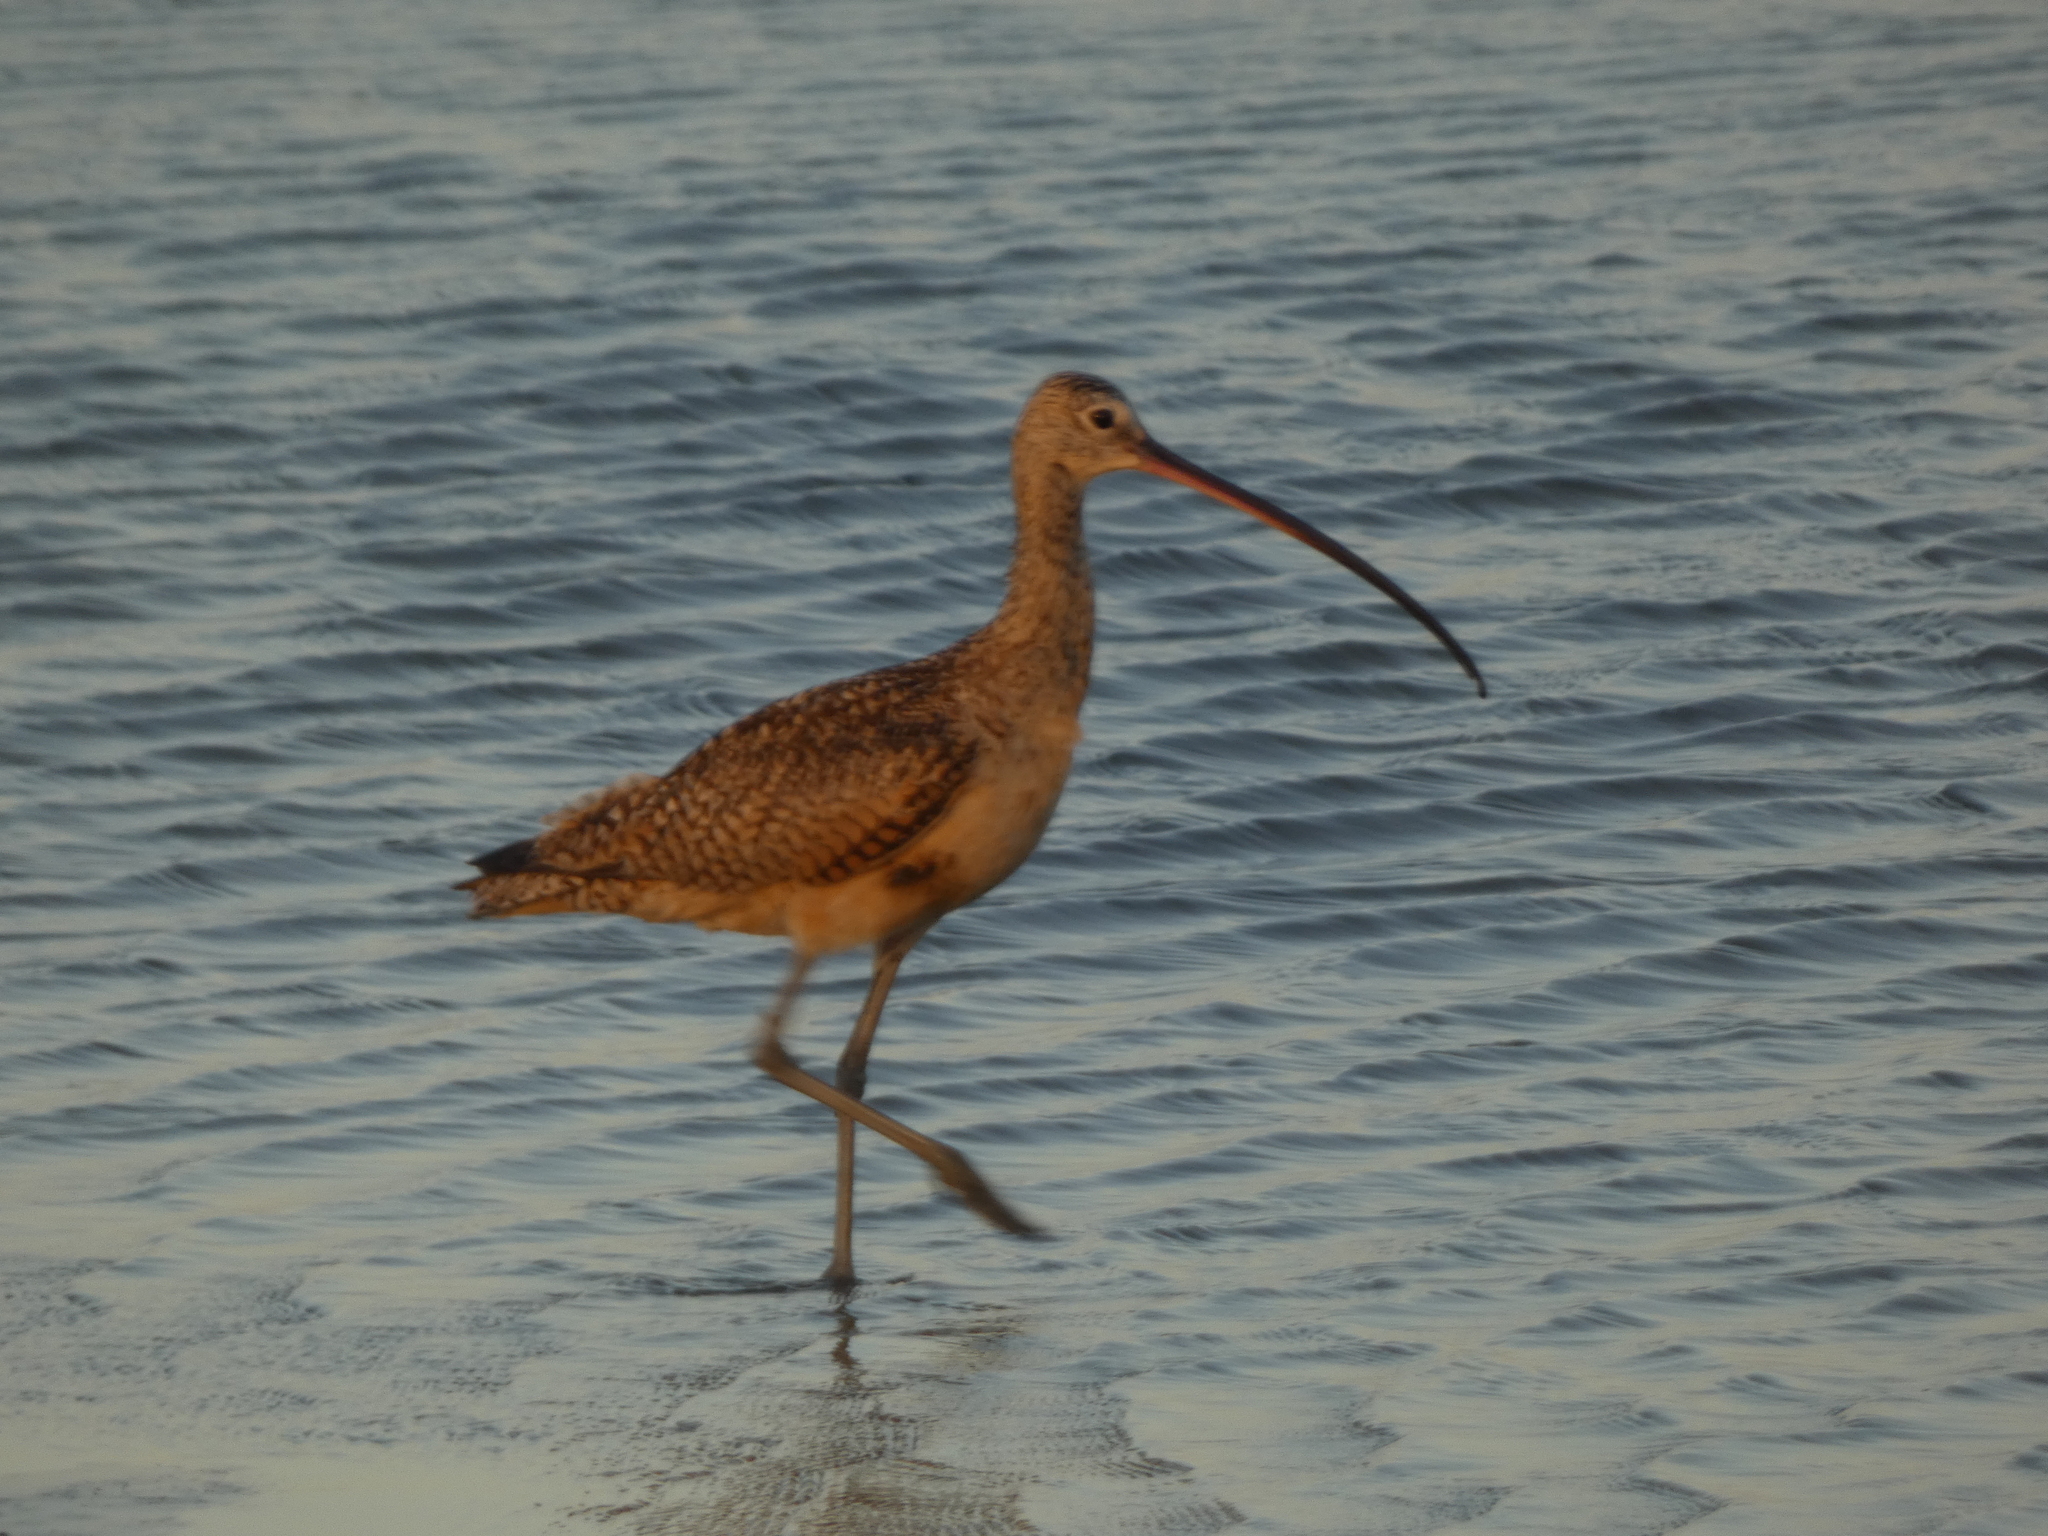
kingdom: Animalia
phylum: Chordata
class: Aves
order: Charadriiformes
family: Scolopacidae
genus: Numenius
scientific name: Numenius americanus
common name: Long-billed curlew
